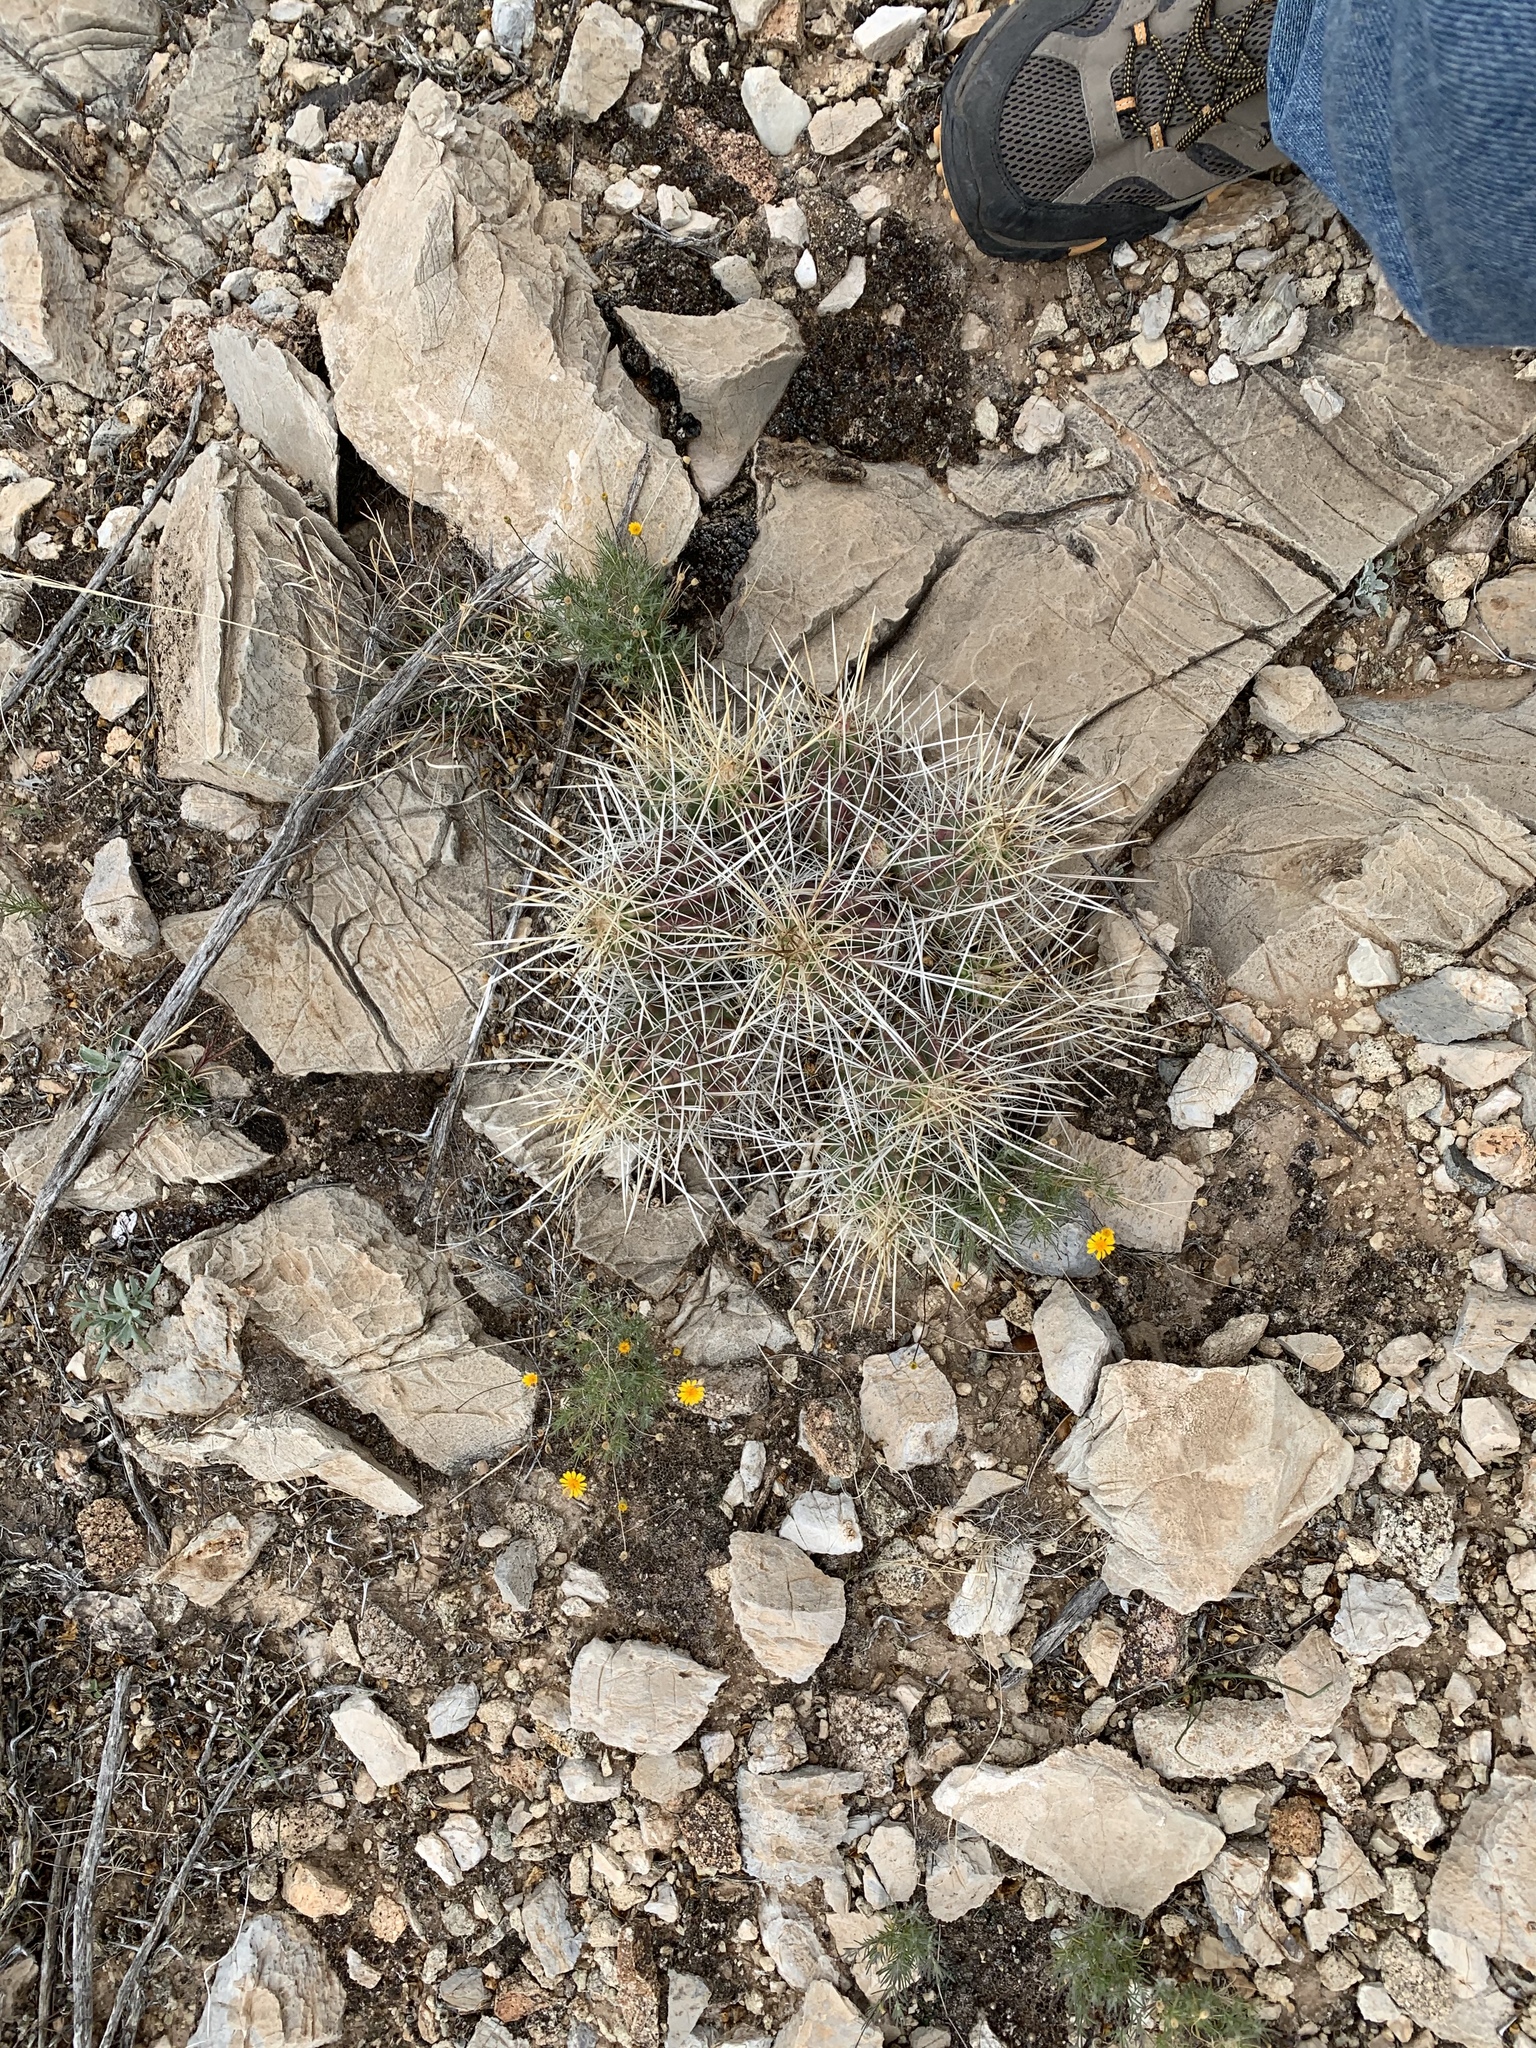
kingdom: Plantae
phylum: Tracheophyta
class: Magnoliopsida
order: Caryophyllales
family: Cactaceae
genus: Echinocereus
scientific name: Echinocereus stramineus
